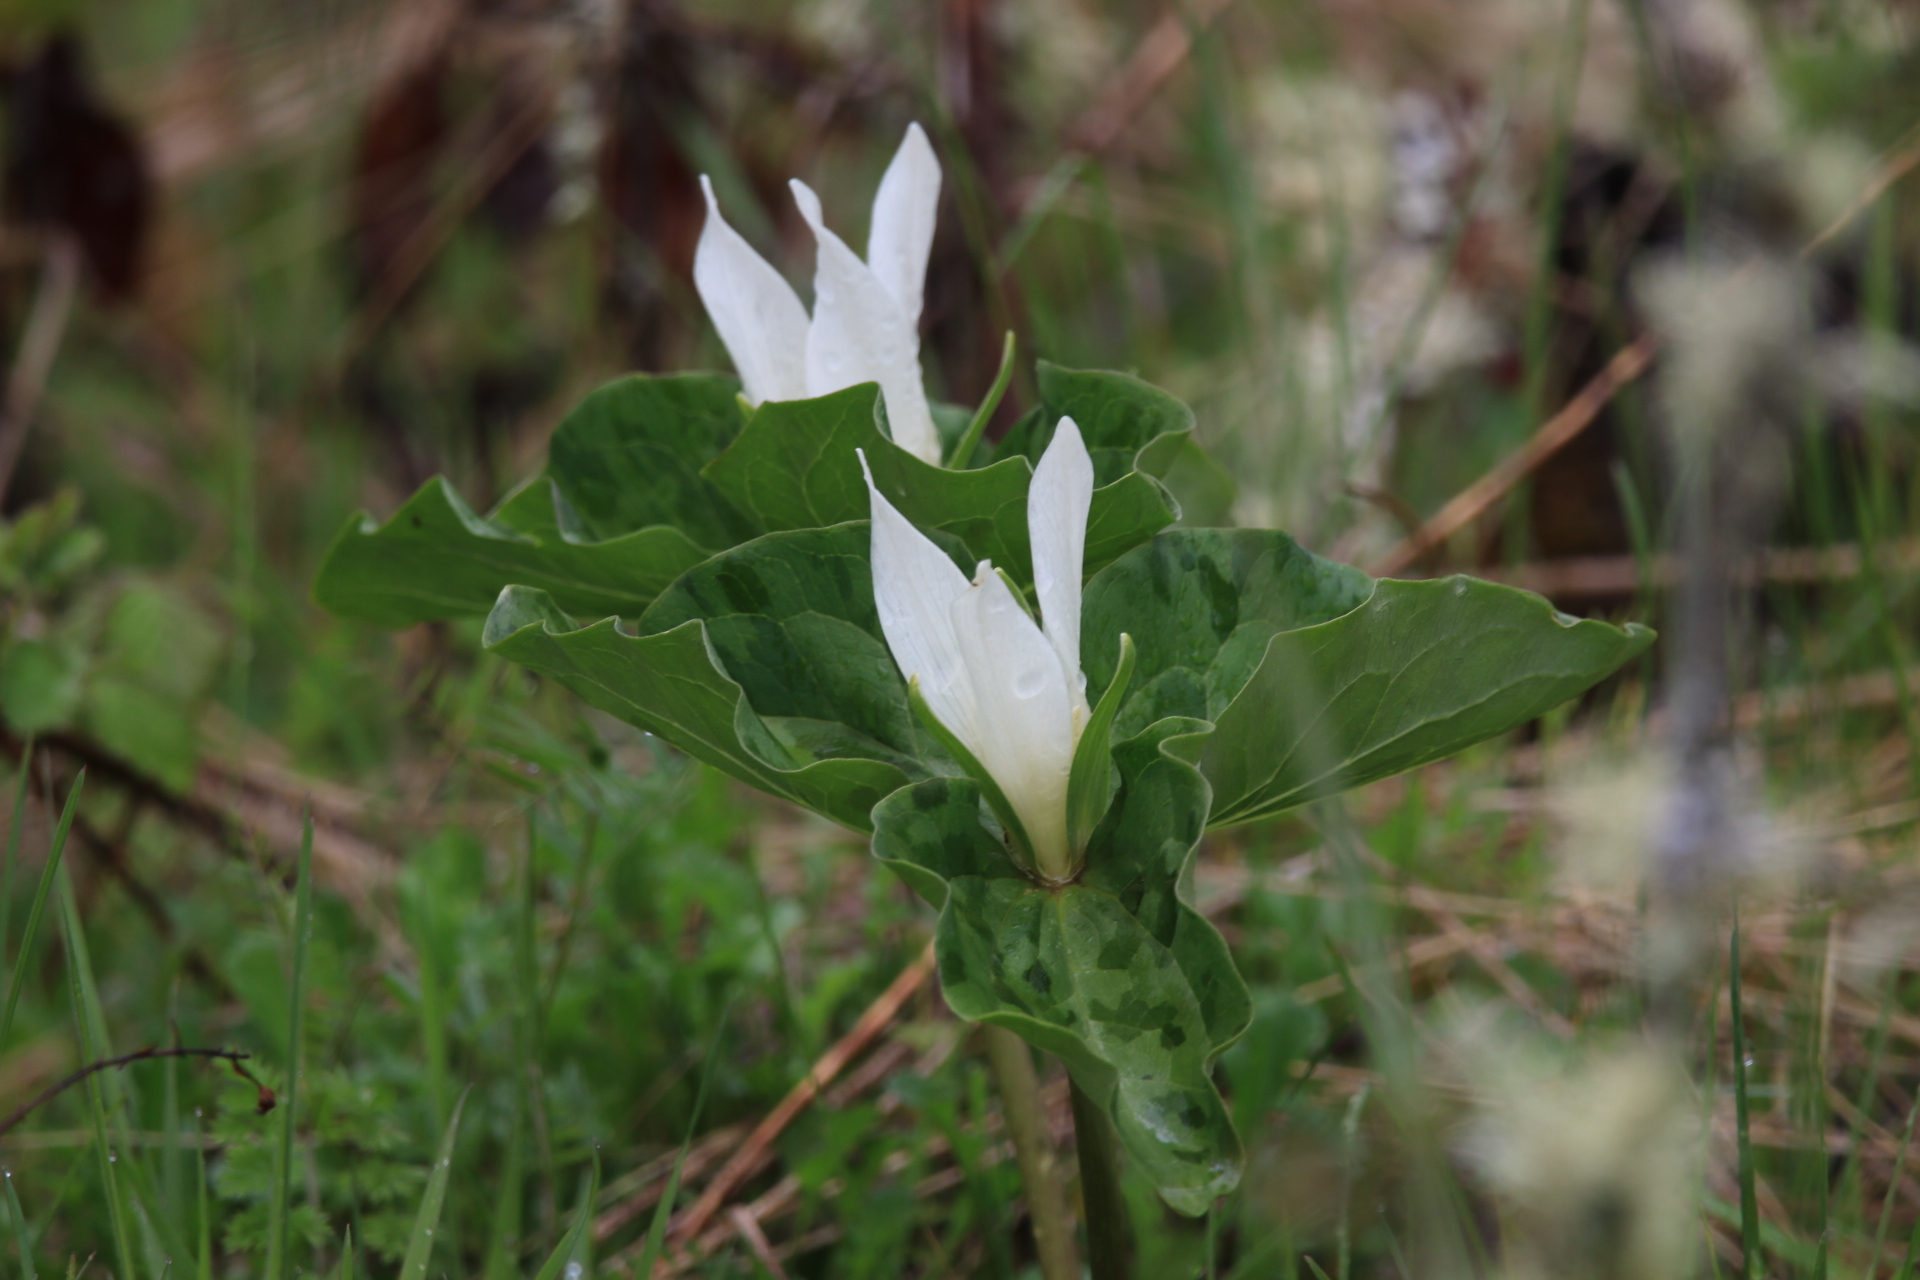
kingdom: Plantae
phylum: Tracheophyta
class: Liliopsida
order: Liliales
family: Melanthiaceae
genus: Trillium
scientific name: Trillium albidum
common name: Freeman's trillium
